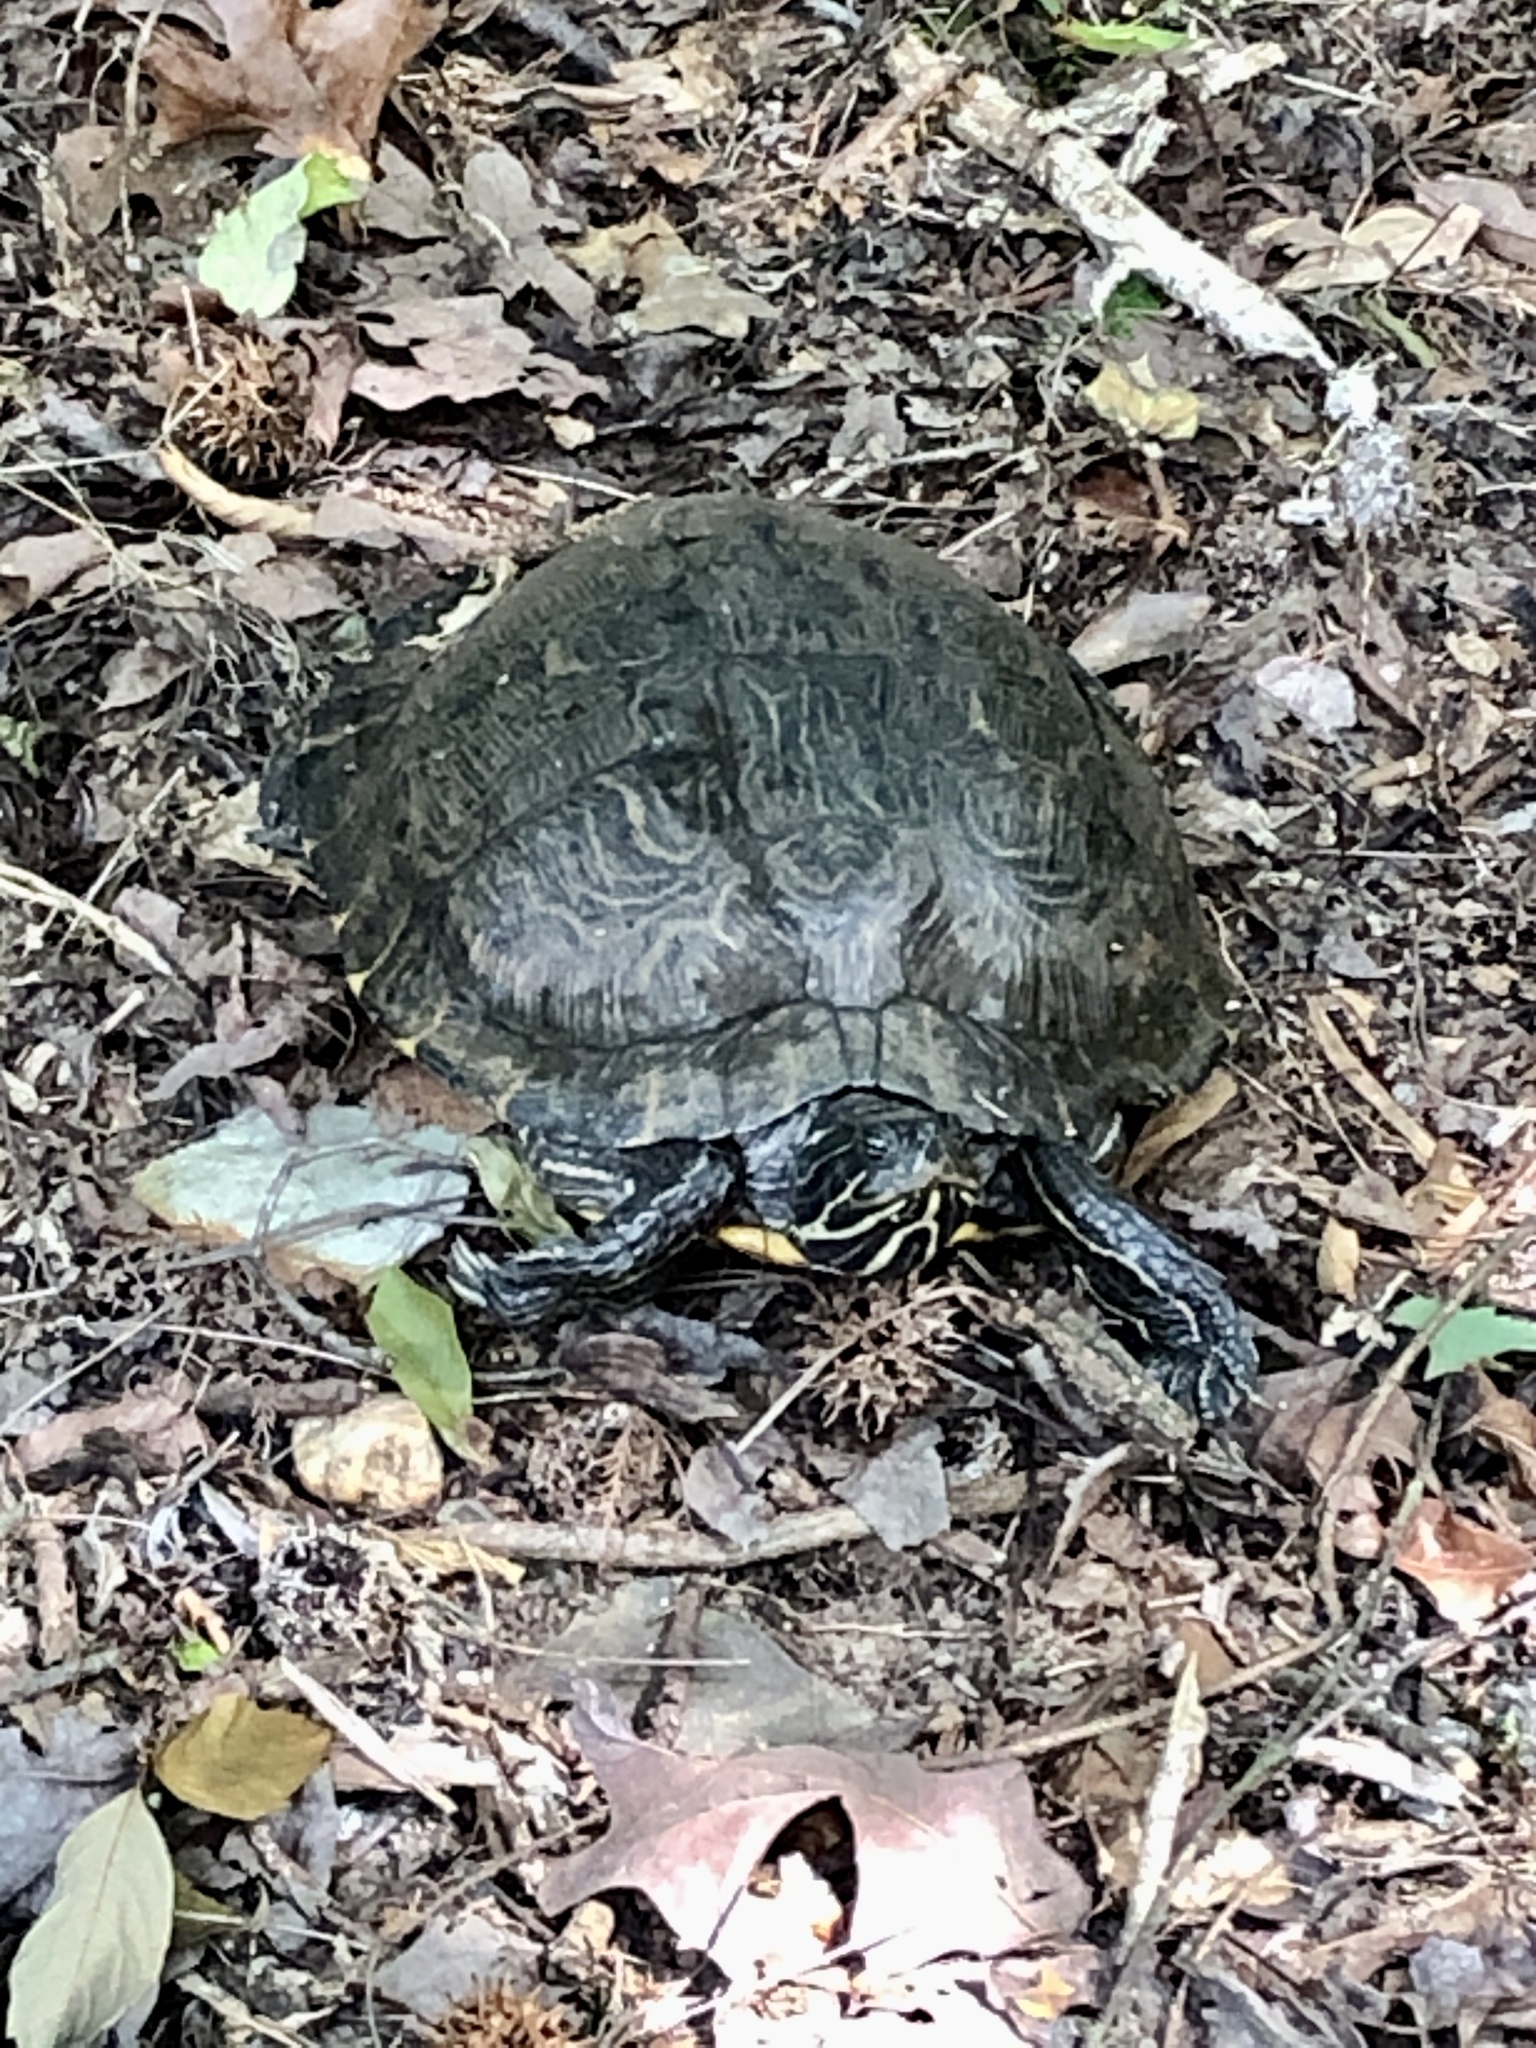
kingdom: Animalia
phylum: Chordata
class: Testudines
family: Emydidae
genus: Pseudemys
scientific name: Pseudemys concinna
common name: Eastern river cooter
